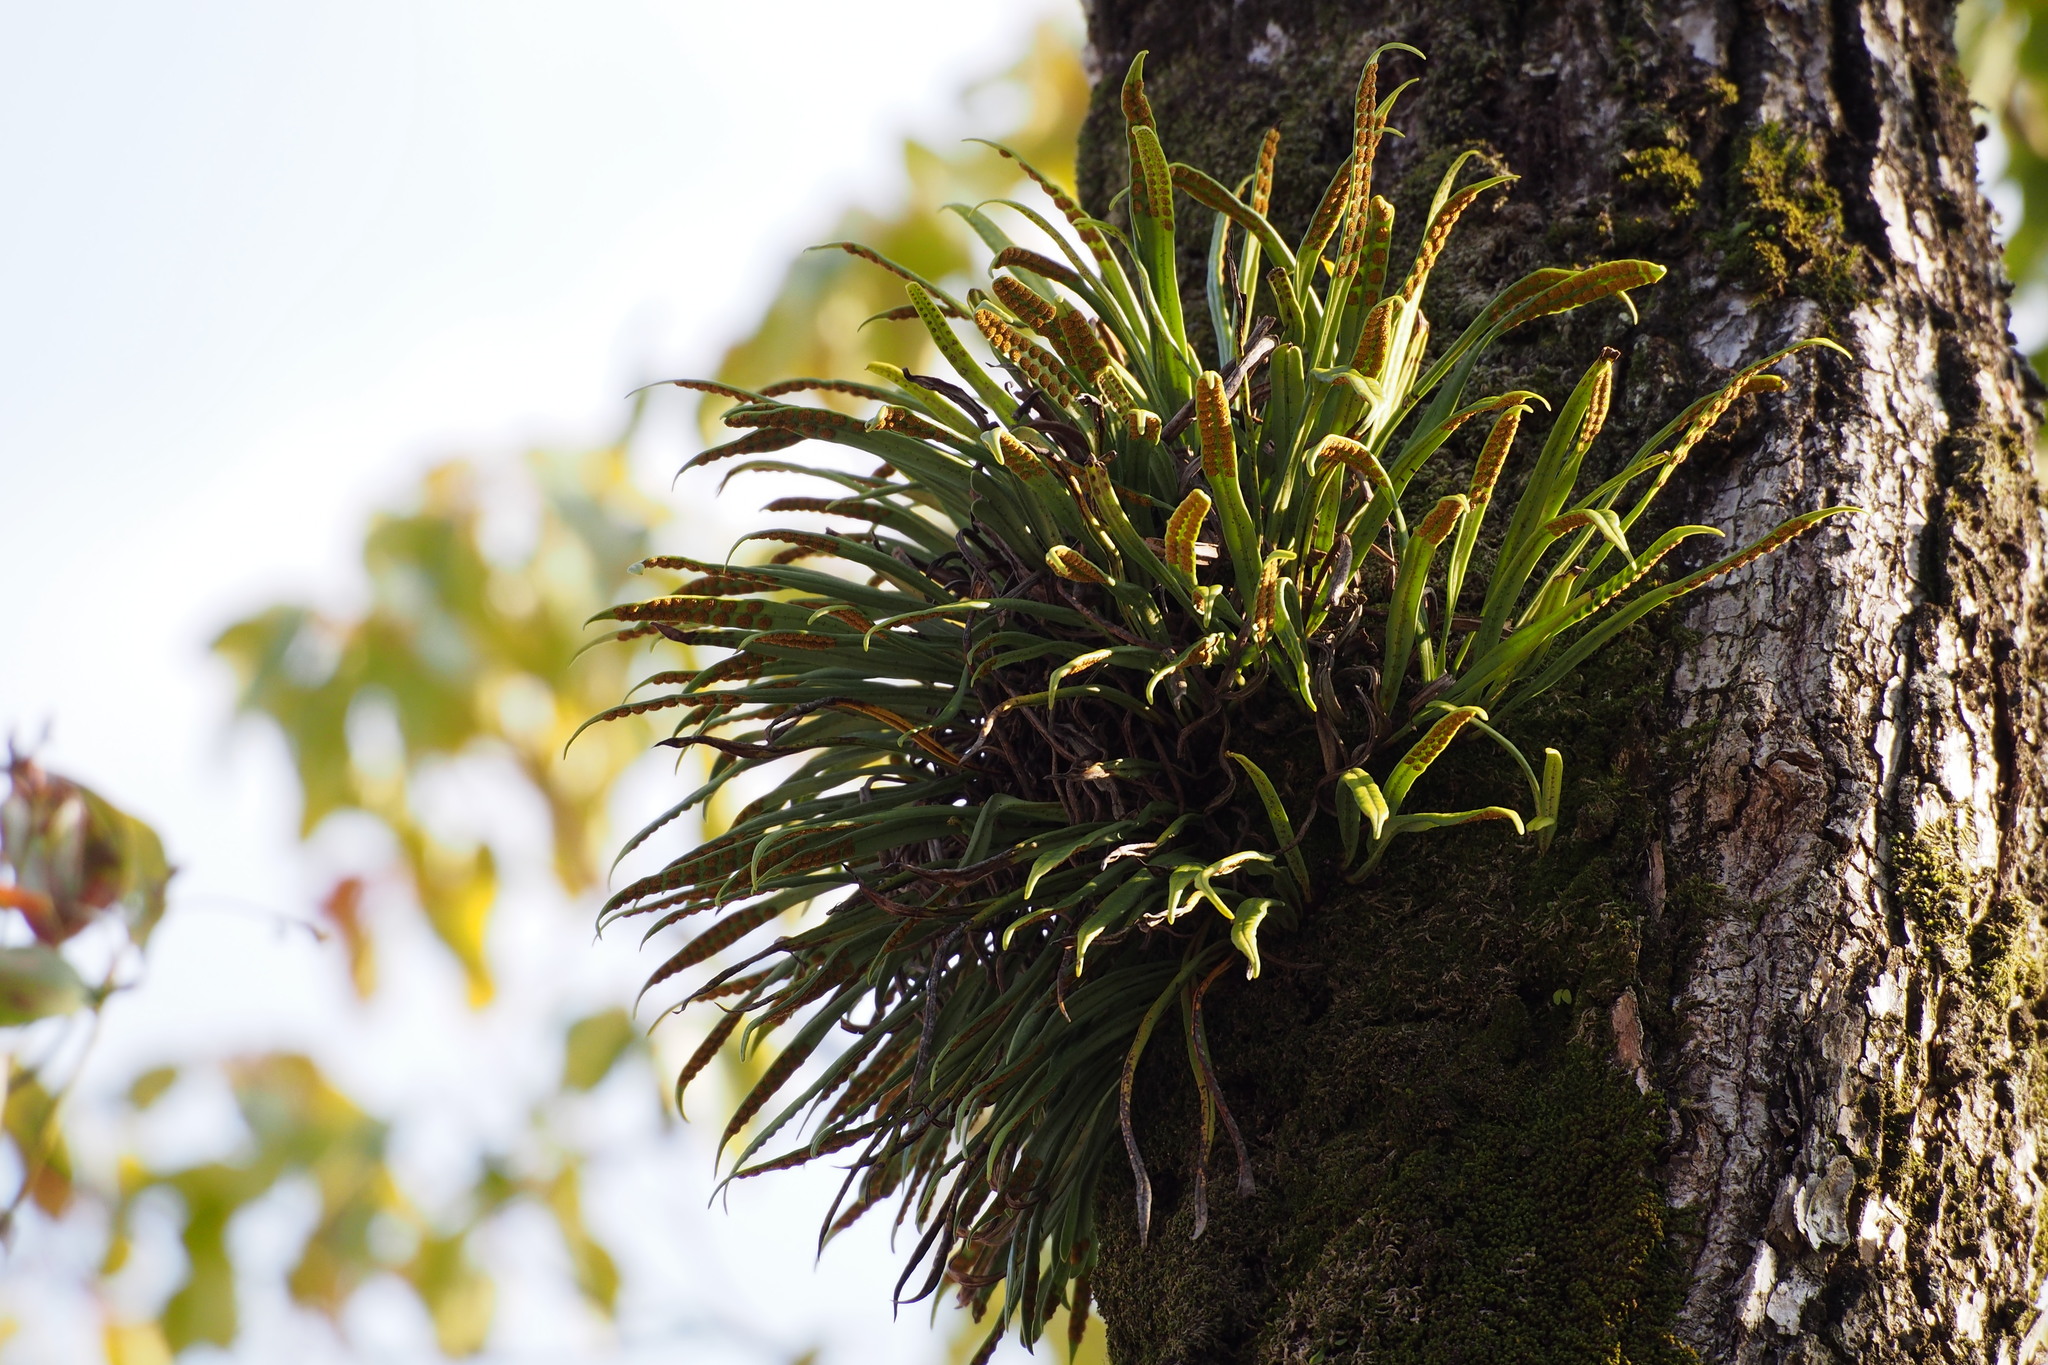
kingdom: Plantae
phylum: Tracheophyta
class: Polypodiopsida
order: Polypodiales
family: Polypodiaceae
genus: Lepisorus
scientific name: Lepisorus thunbergianus
